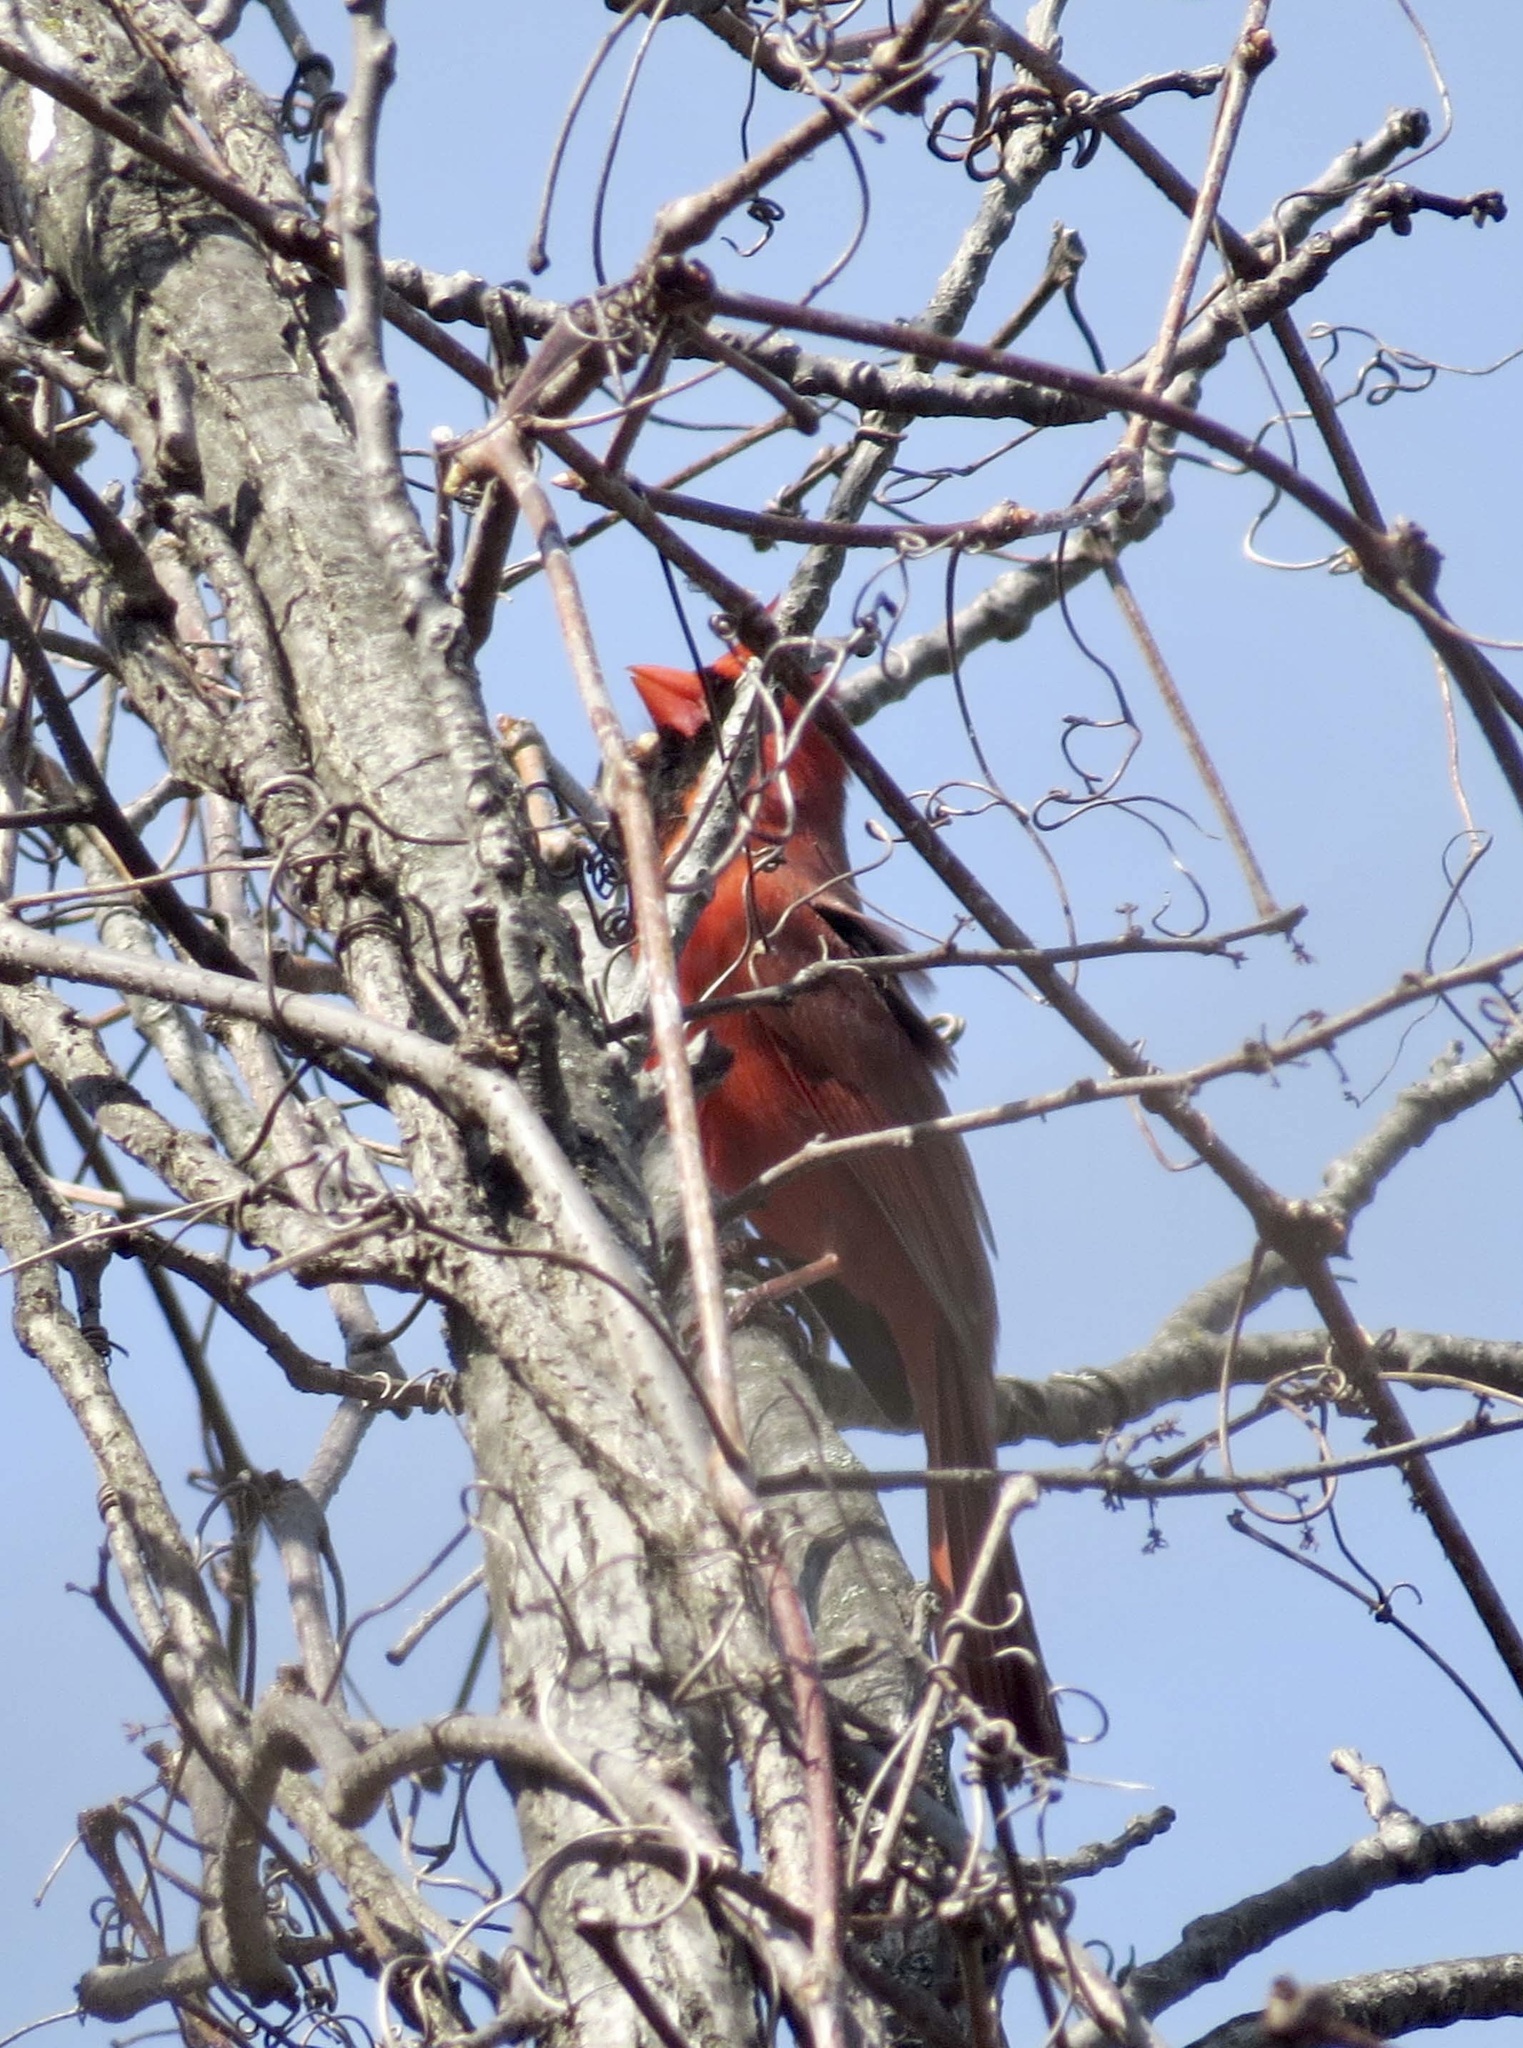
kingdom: Animalia
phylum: Chordata
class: Aves
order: Passeriformes
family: Cardinalidae
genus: Cardinalis
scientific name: Cardinalis cardinalis
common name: Northern cardinal
